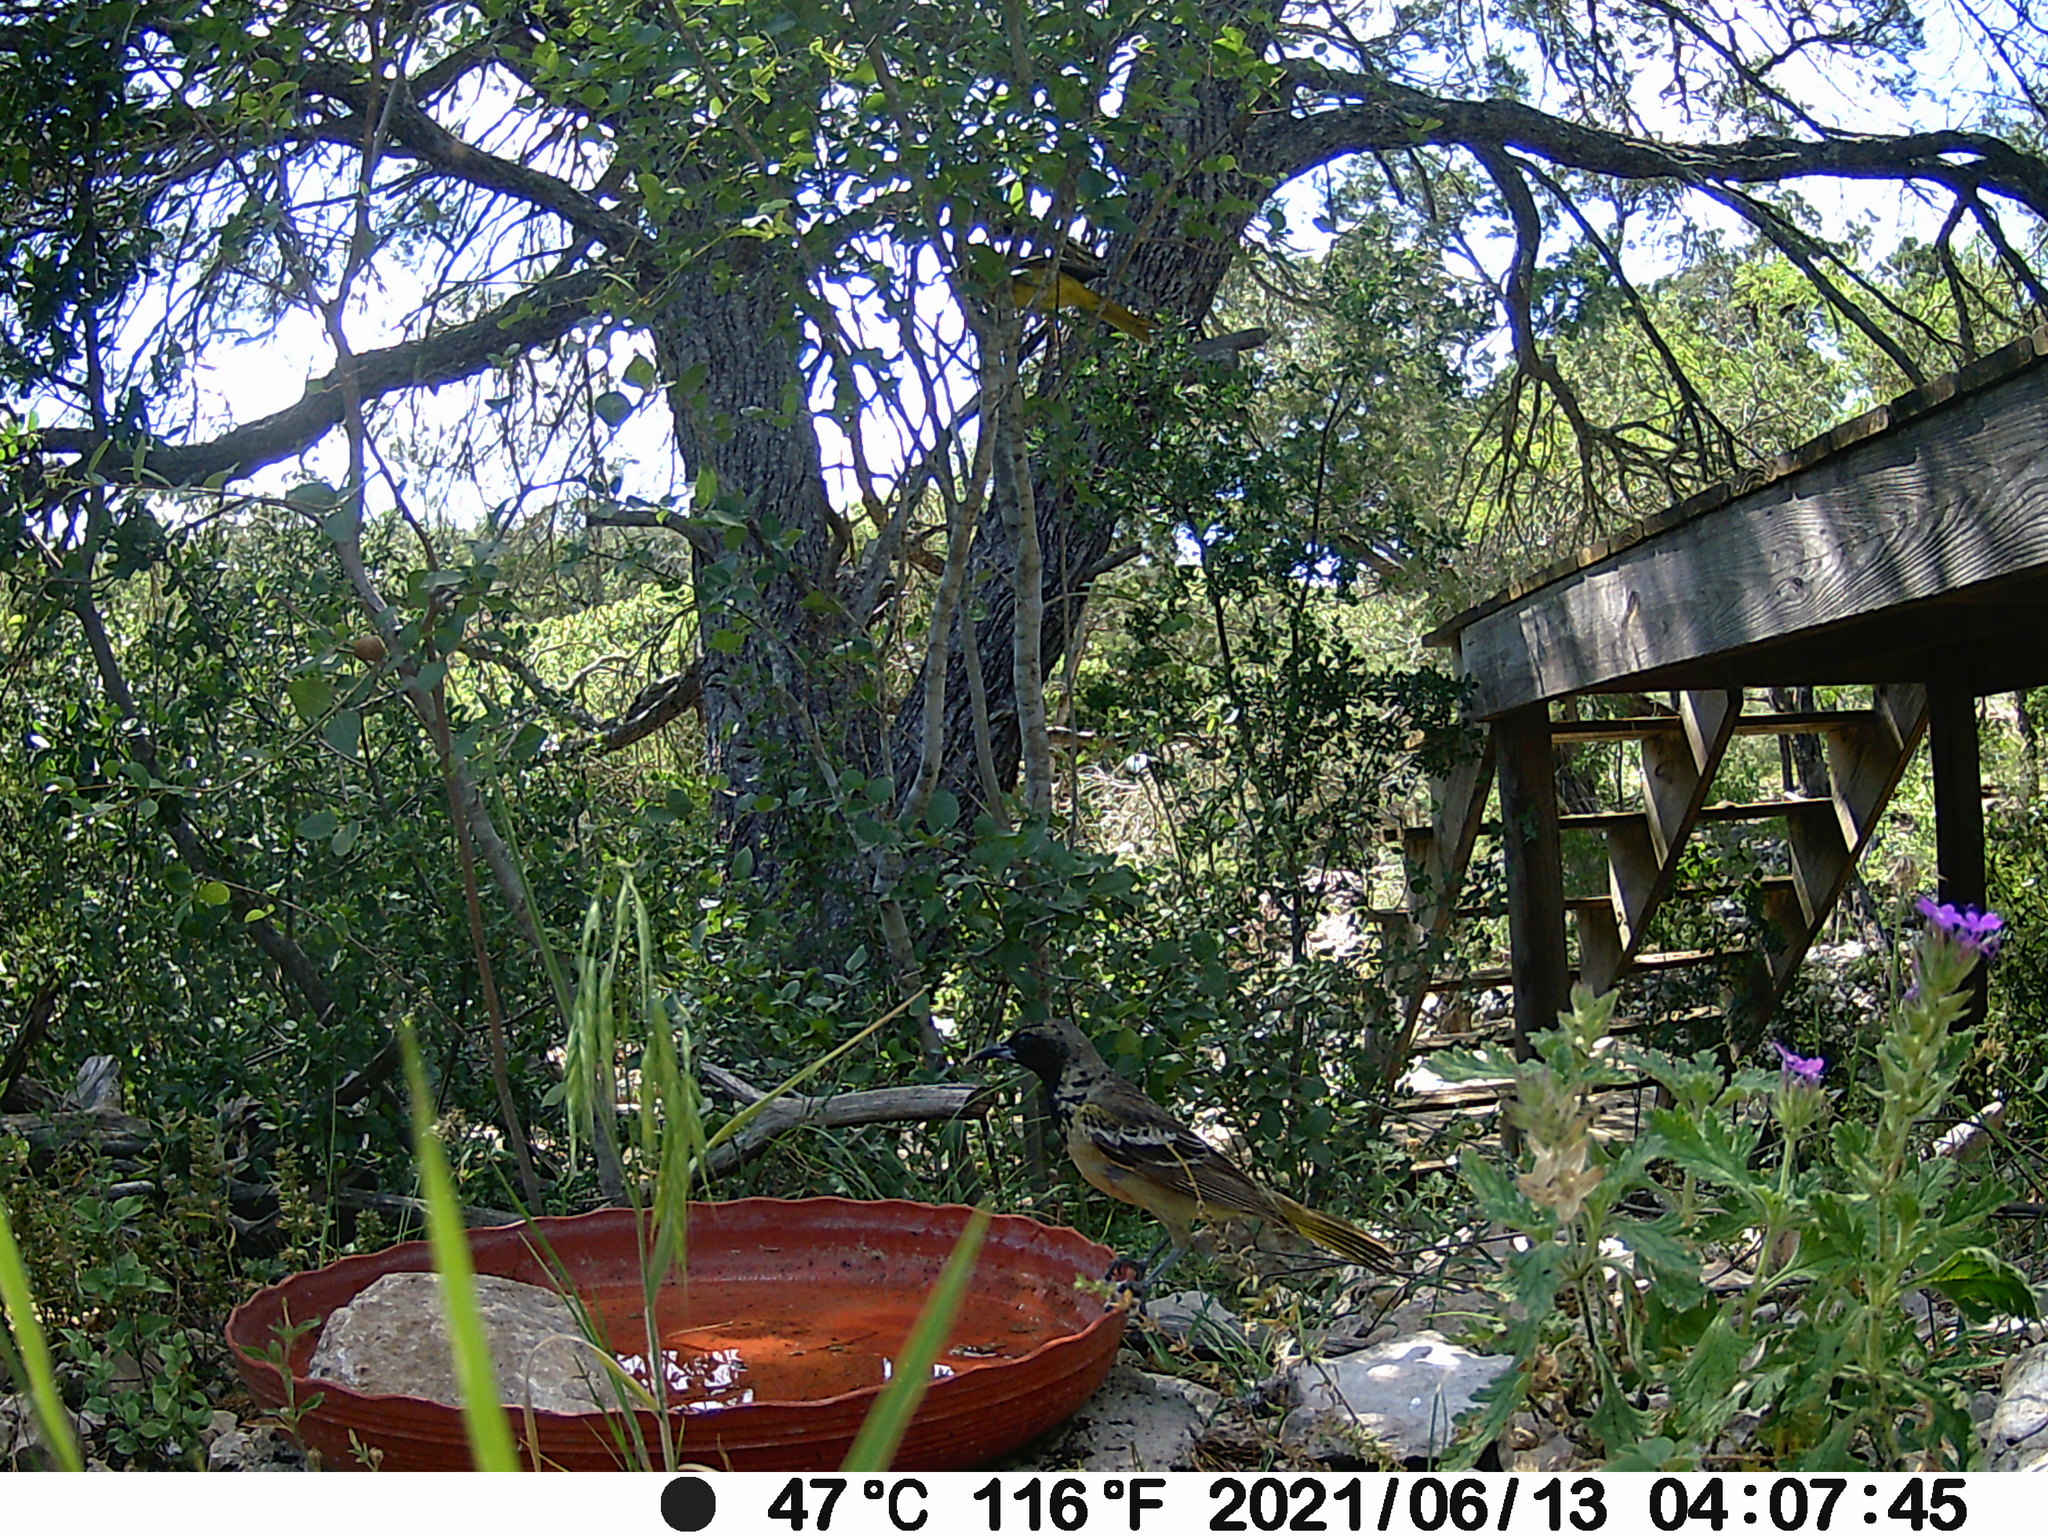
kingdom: Animalia
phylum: Chordata
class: Aves
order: Passeriformes
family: Icteridae
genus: Icterus
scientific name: Icterus parisorum
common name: Scott's oriole
